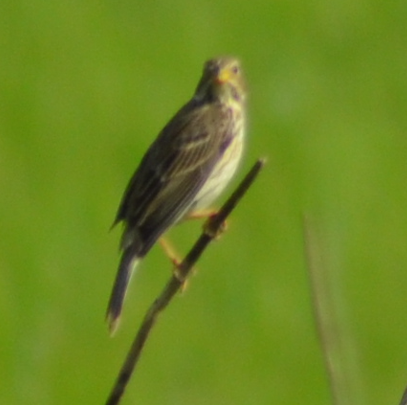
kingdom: Animalia
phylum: Chordata
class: Aves
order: Passeriformes
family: Emberizidae
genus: Emberiza
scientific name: Emberiza calandra
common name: Corn bunting
